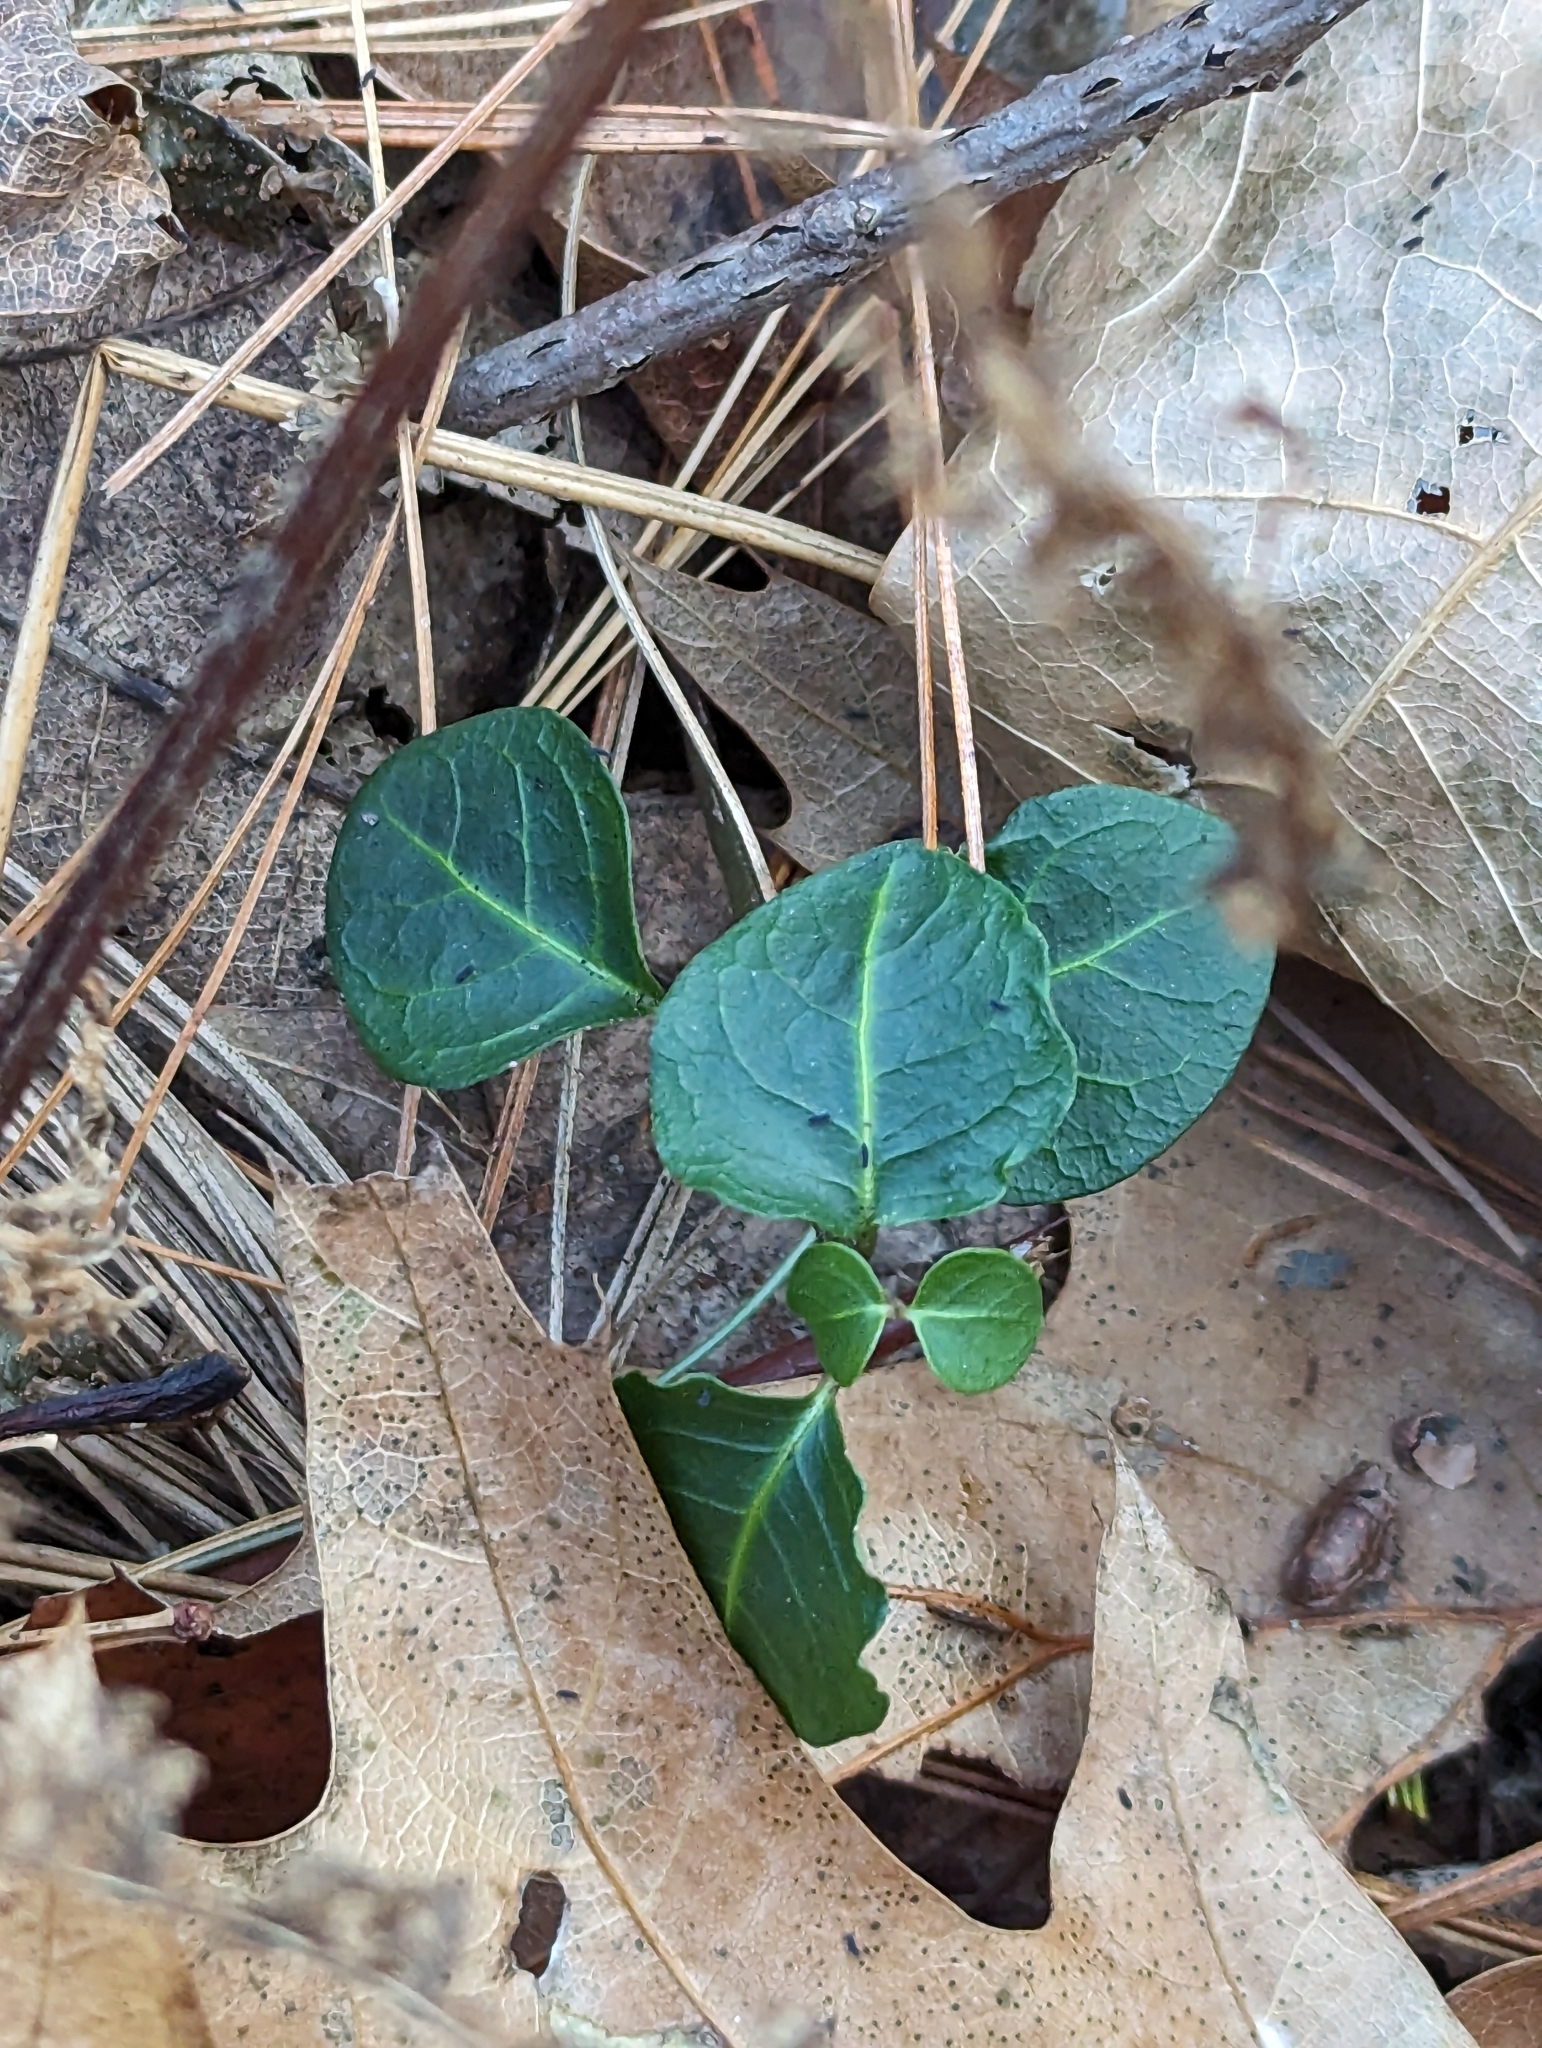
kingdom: Plantae
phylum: Tracheophyta
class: Magnoliopsida
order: Gentianales
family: Rubiaceae
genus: Mitchella
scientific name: Mitchella repens
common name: Partridge-berry
